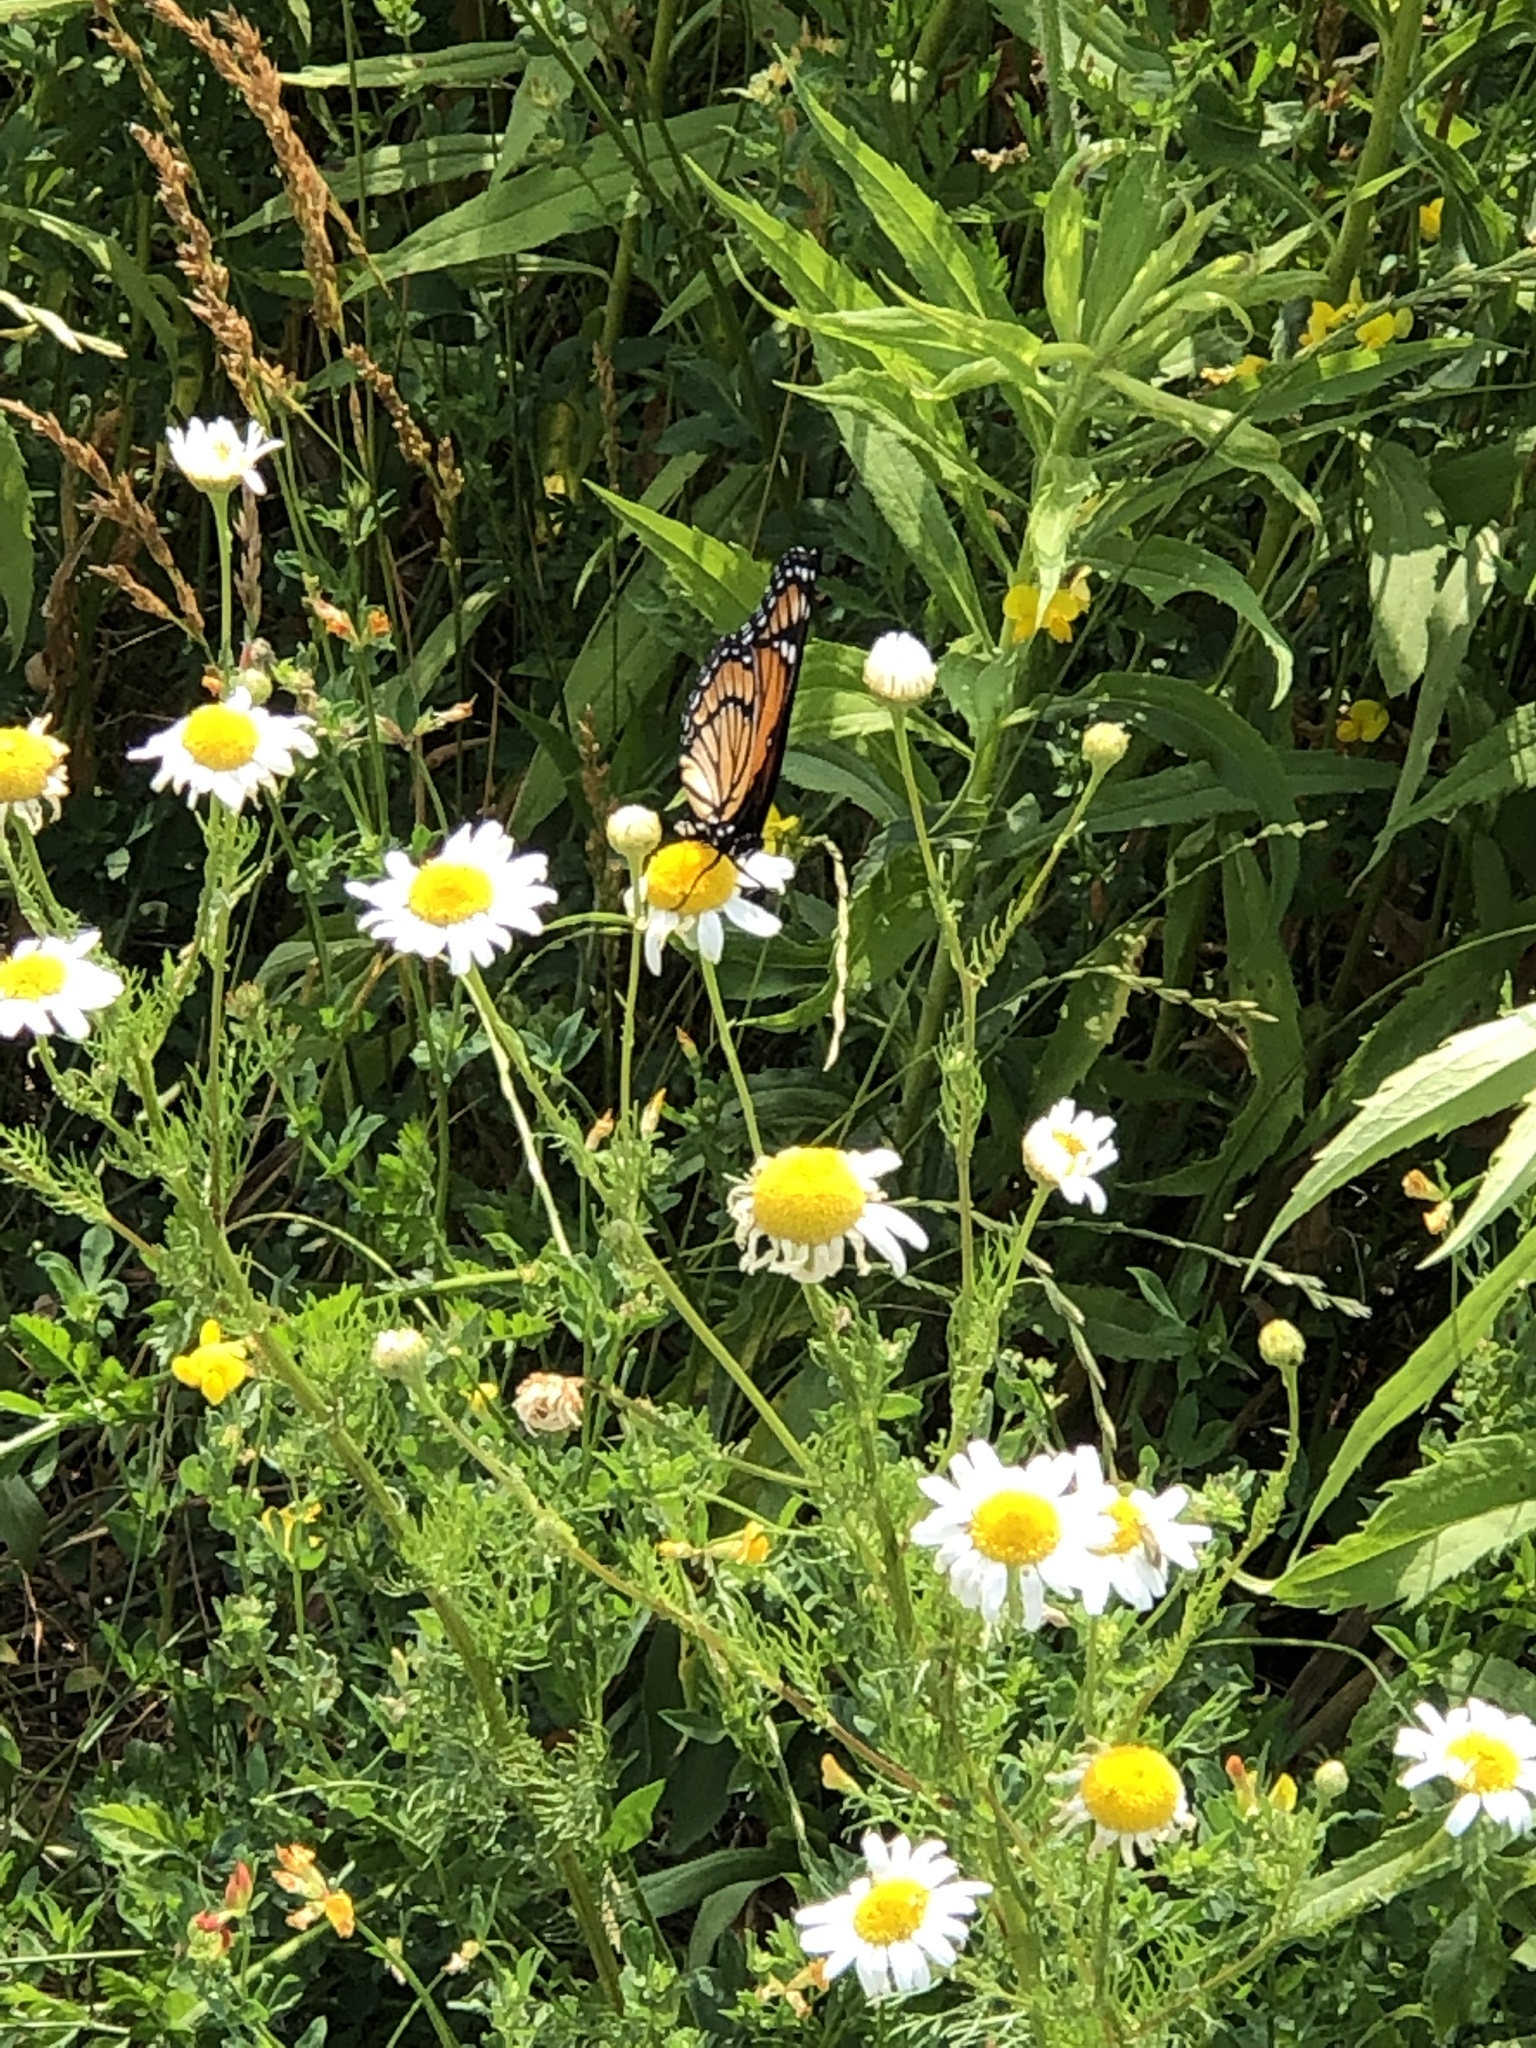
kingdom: Animalia
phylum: Arthropoda
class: Insecta
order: Lepidoptera
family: Nymphalidae
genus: Limenitis
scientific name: Limenitis archippus
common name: Viceroy
